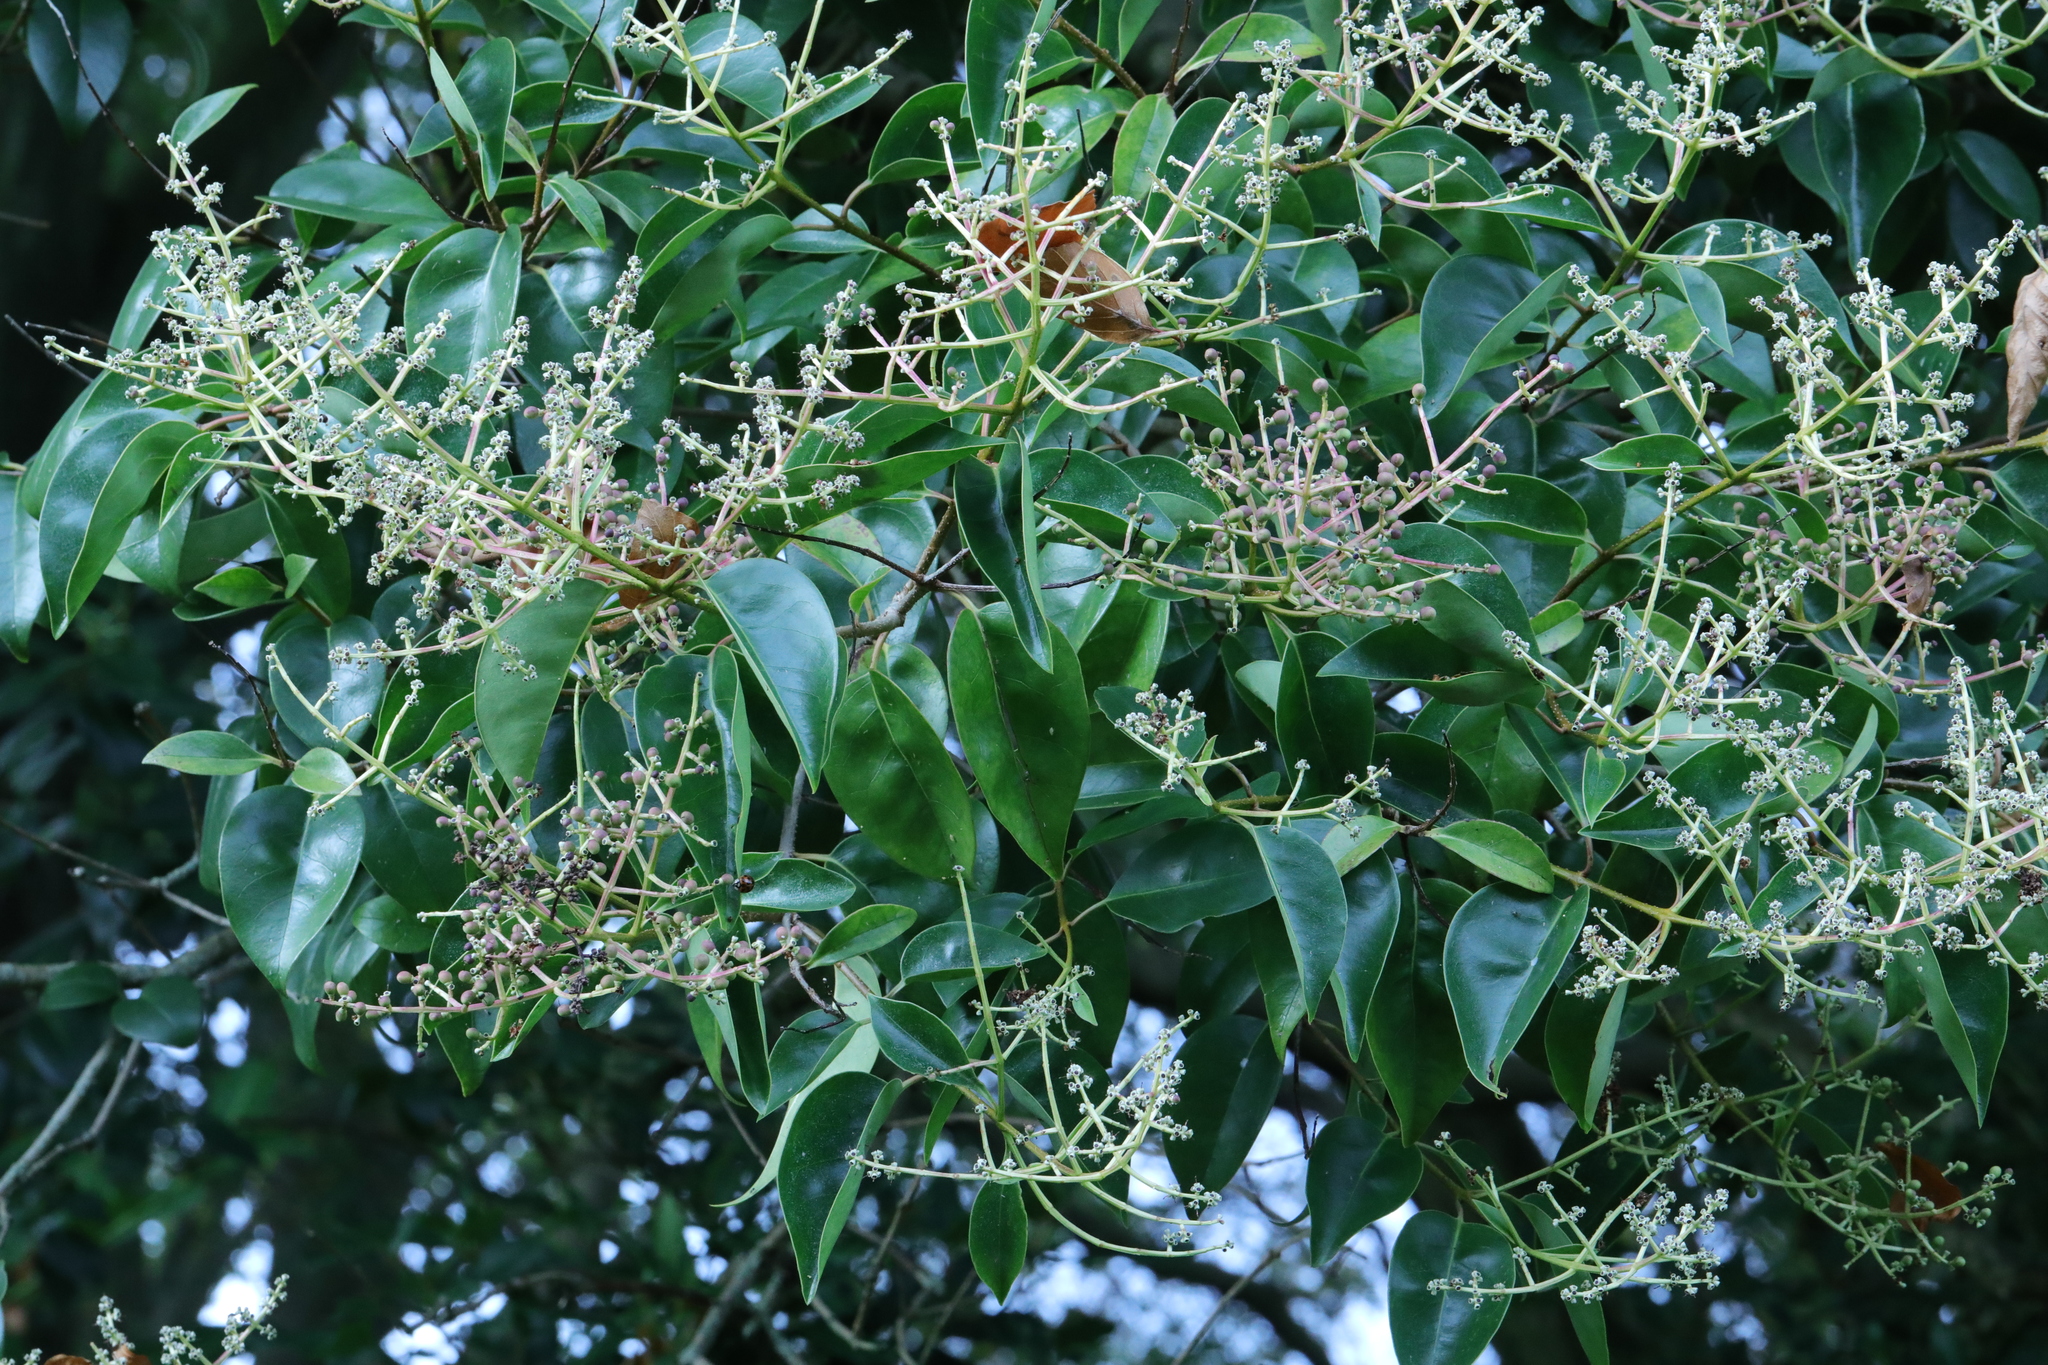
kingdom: Plantae
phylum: Tracheophyta
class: Magnoliopsida
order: Lamiales
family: Oleaceae
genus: Ligustrum
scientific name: Ligustrum lucidum
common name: Glossy privet
